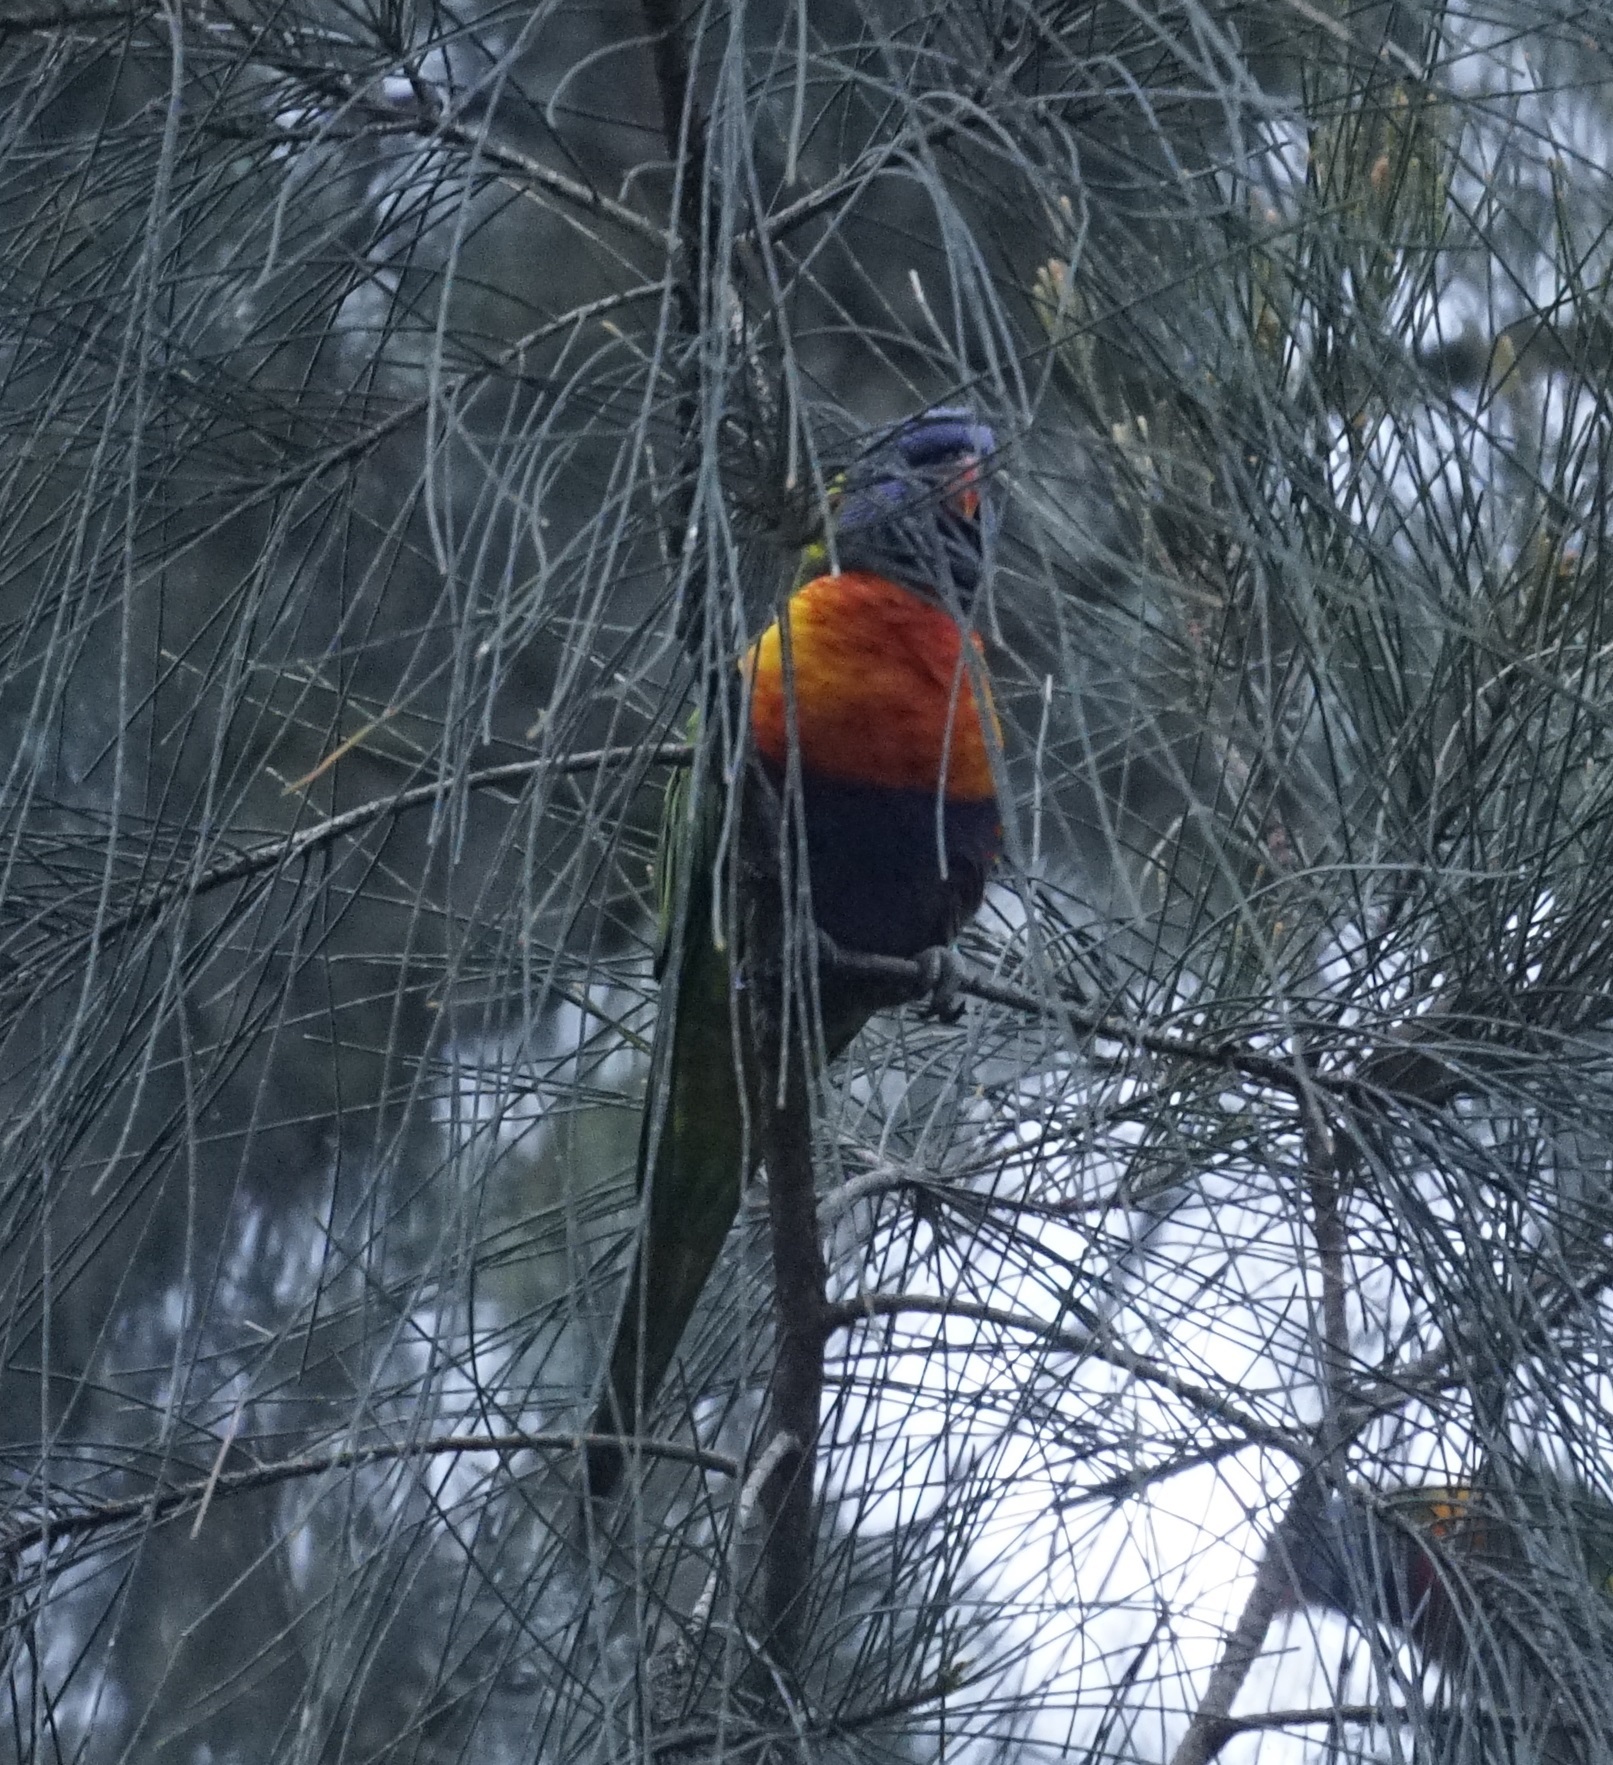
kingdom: Animalia
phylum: Chordata
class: Aves
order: Psittaciformes
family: Psittacidae
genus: Trichoglossus
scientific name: Trichoglossus haematodus
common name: Coconut lorikeet
